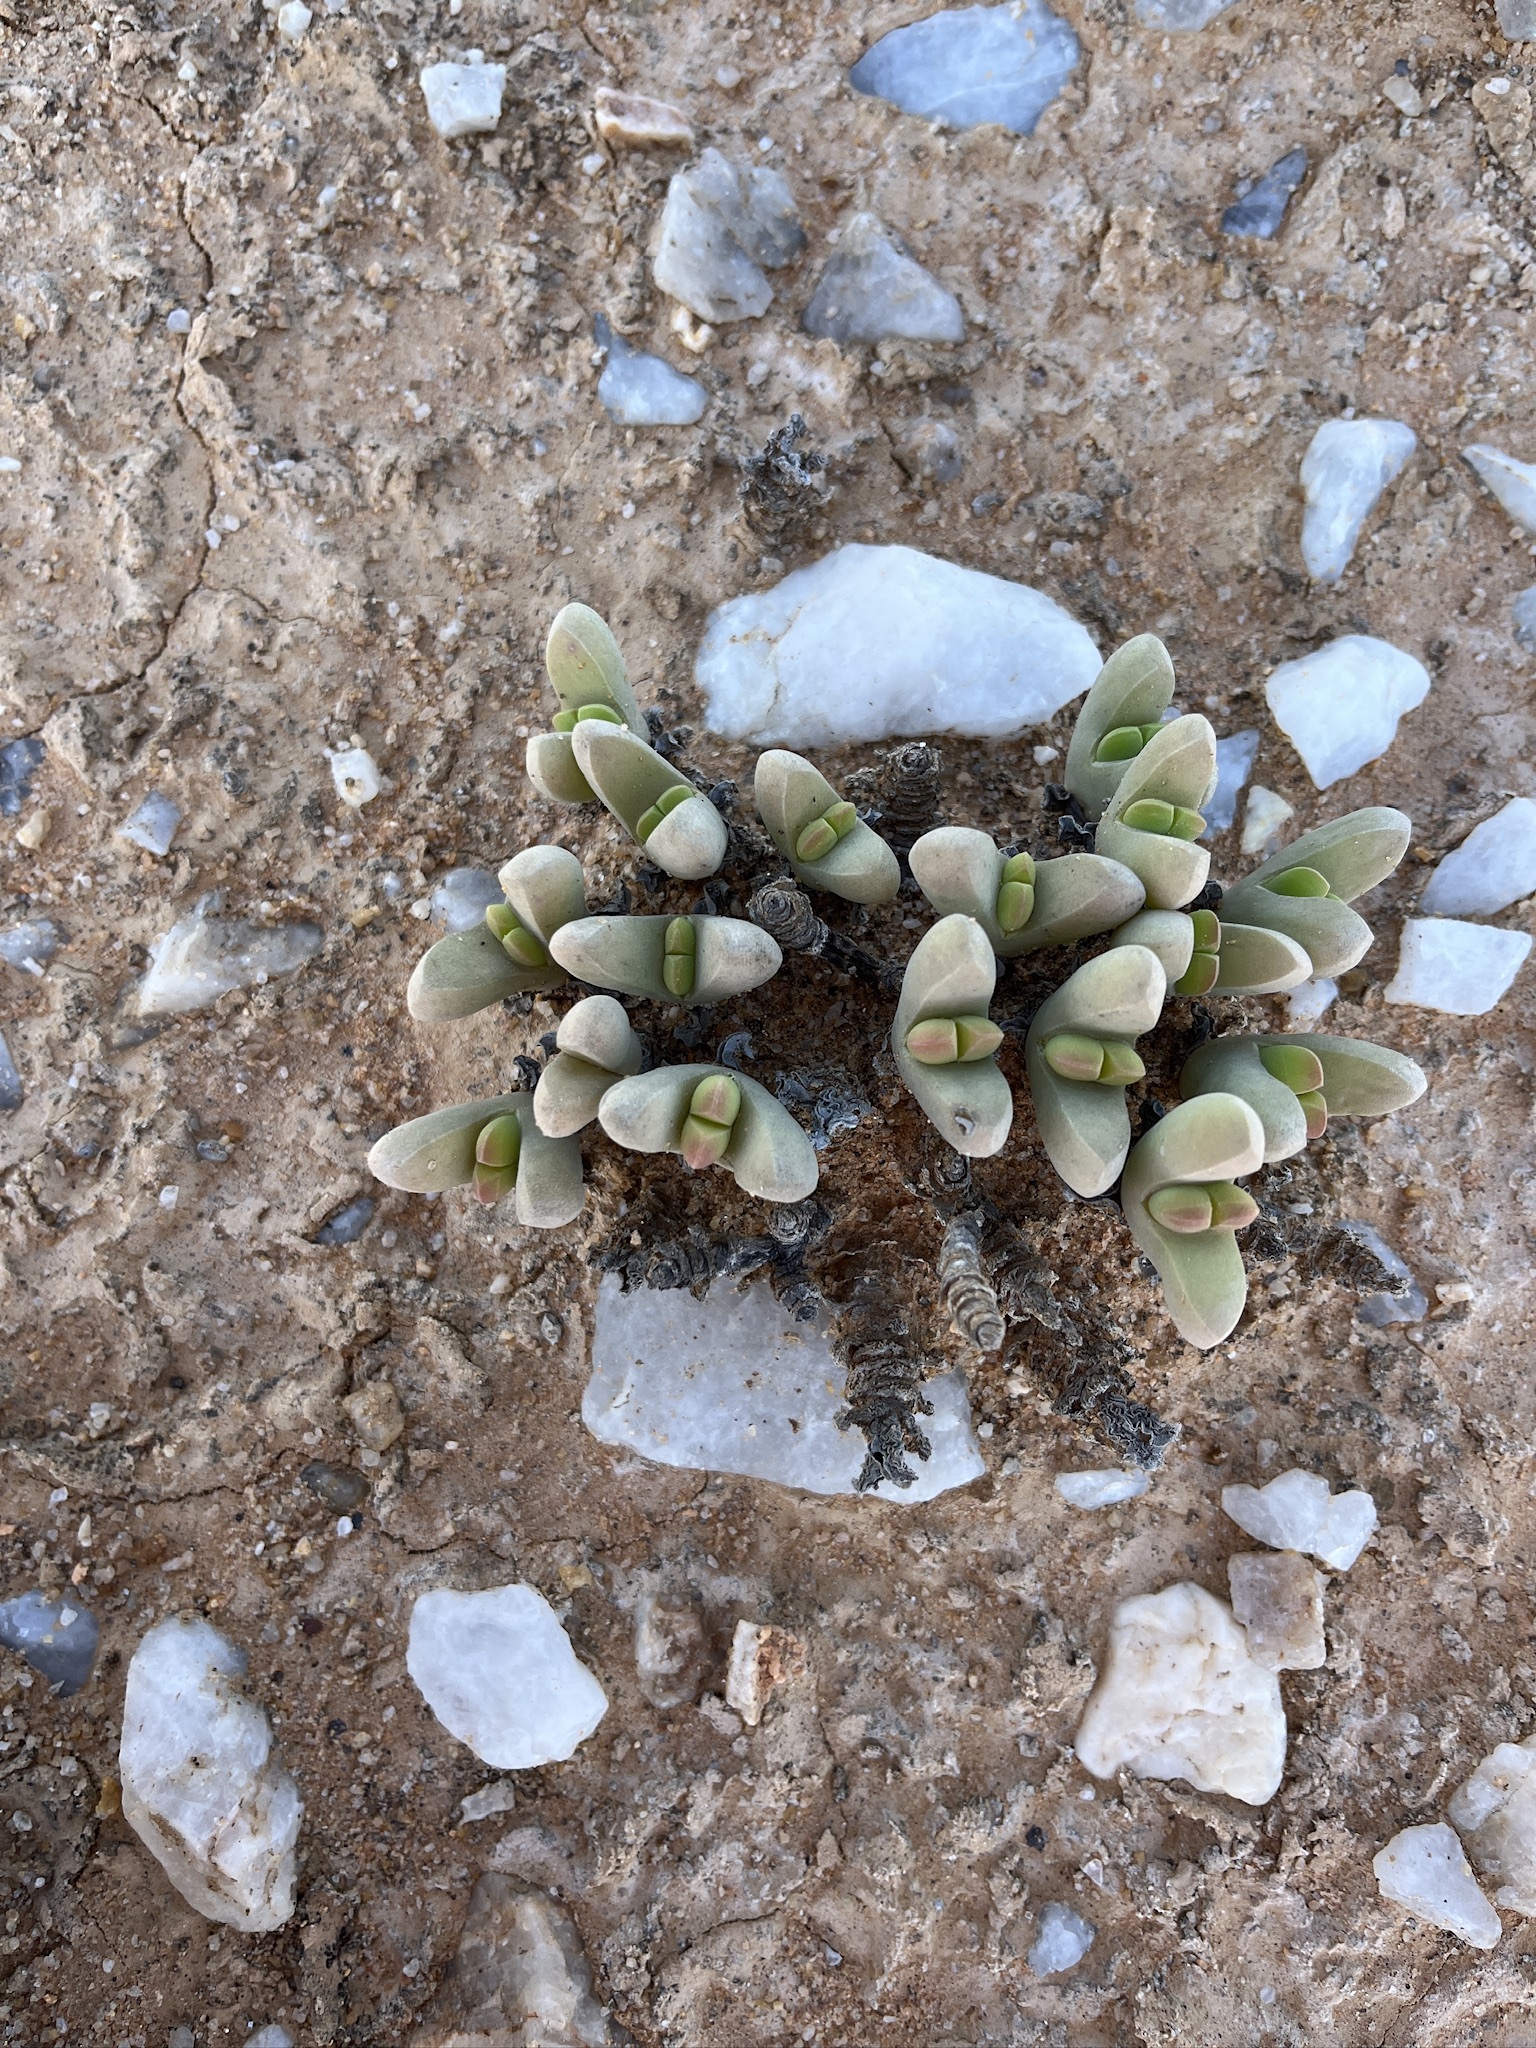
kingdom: Plantae
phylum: Tracheophyta
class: Magnoliopsida
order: Caryophyllales
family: Aizoaceae
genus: Jacobsenia
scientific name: Jacobsenia vaginata
